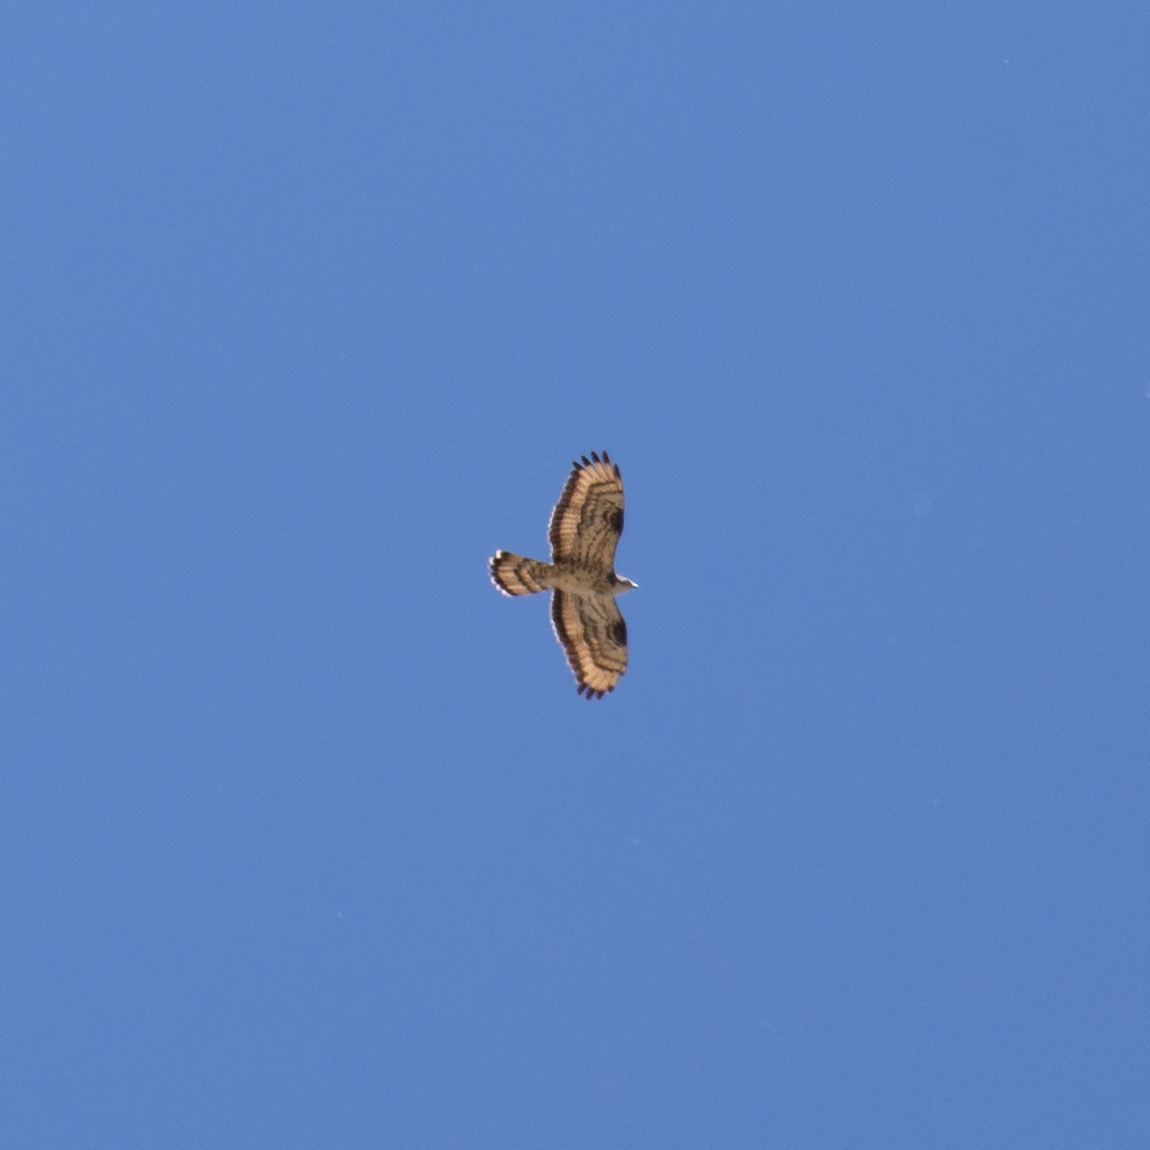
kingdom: Animalia
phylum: Chordata
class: Aves
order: Accipitriformes
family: Accipitridae
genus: Pernis
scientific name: Pernis apivorus
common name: European honey buzzard
